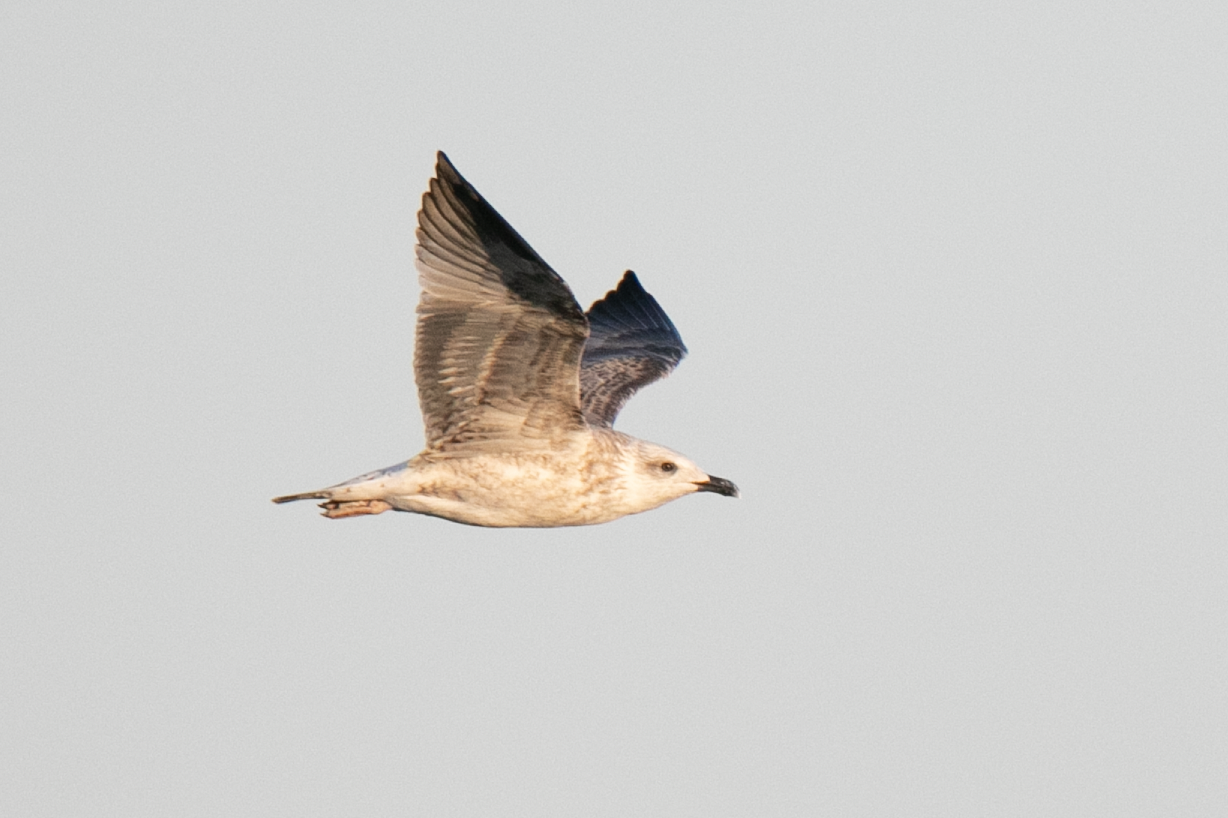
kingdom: Animalia
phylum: Chordata
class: Aves
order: Charadriiformes
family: Laridae
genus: Larus
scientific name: Larus michahellis
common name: Yellow-legged gull
